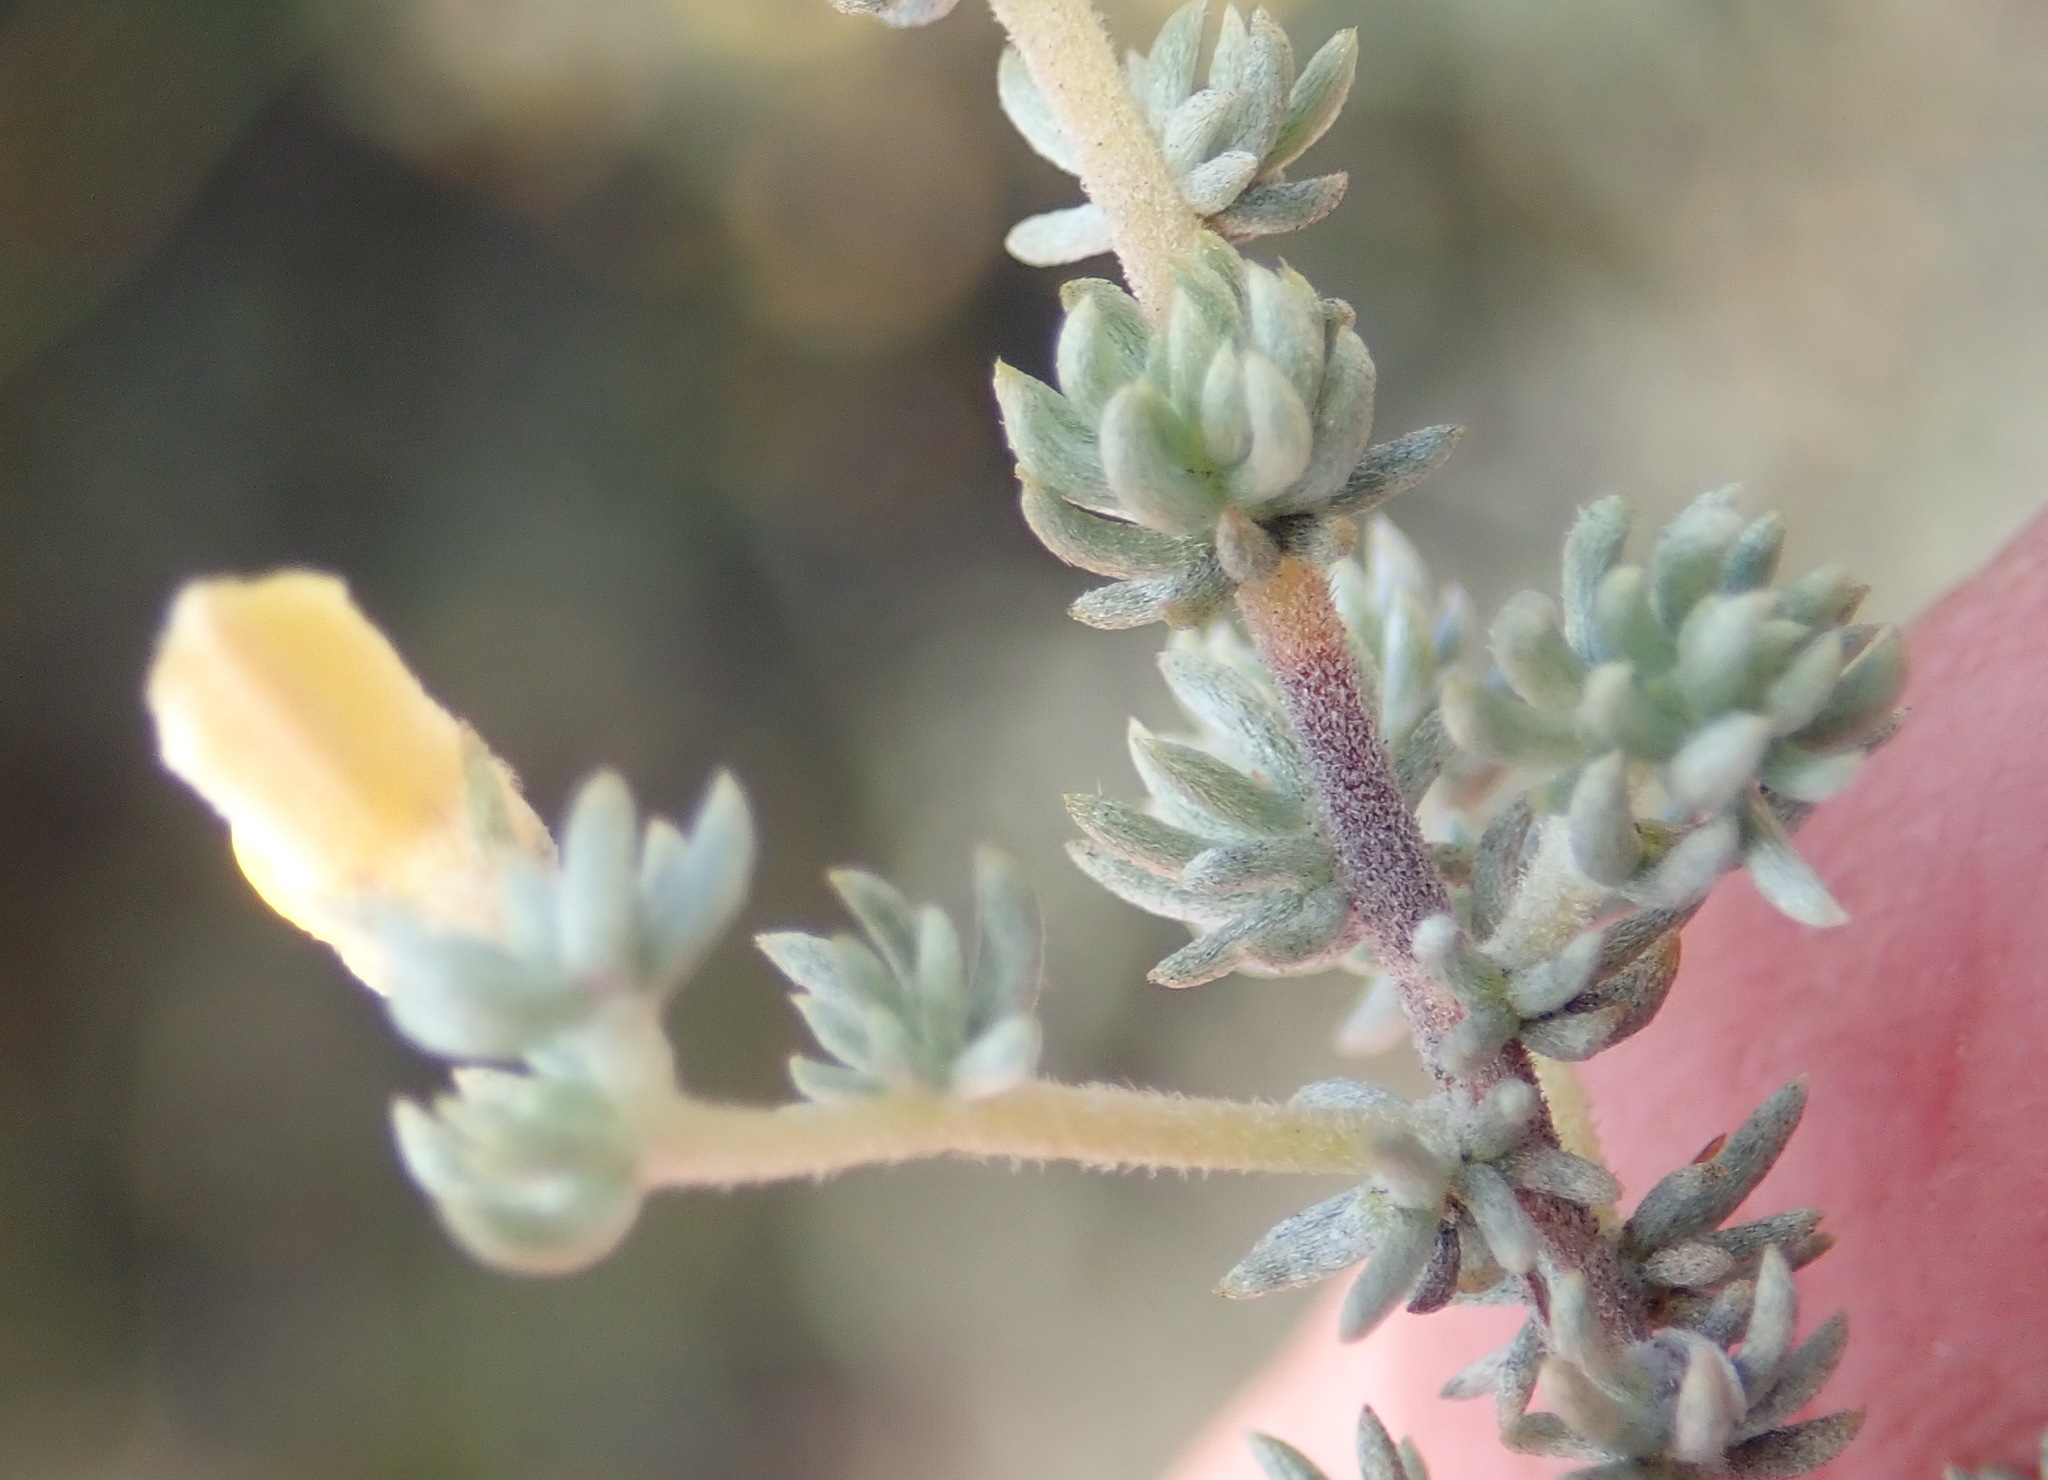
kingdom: Plantae
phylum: Tracheophyta
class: Magnoliopsida
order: Fabales
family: Fabaceae
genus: Aspalathus
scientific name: Aspalathus rubens
